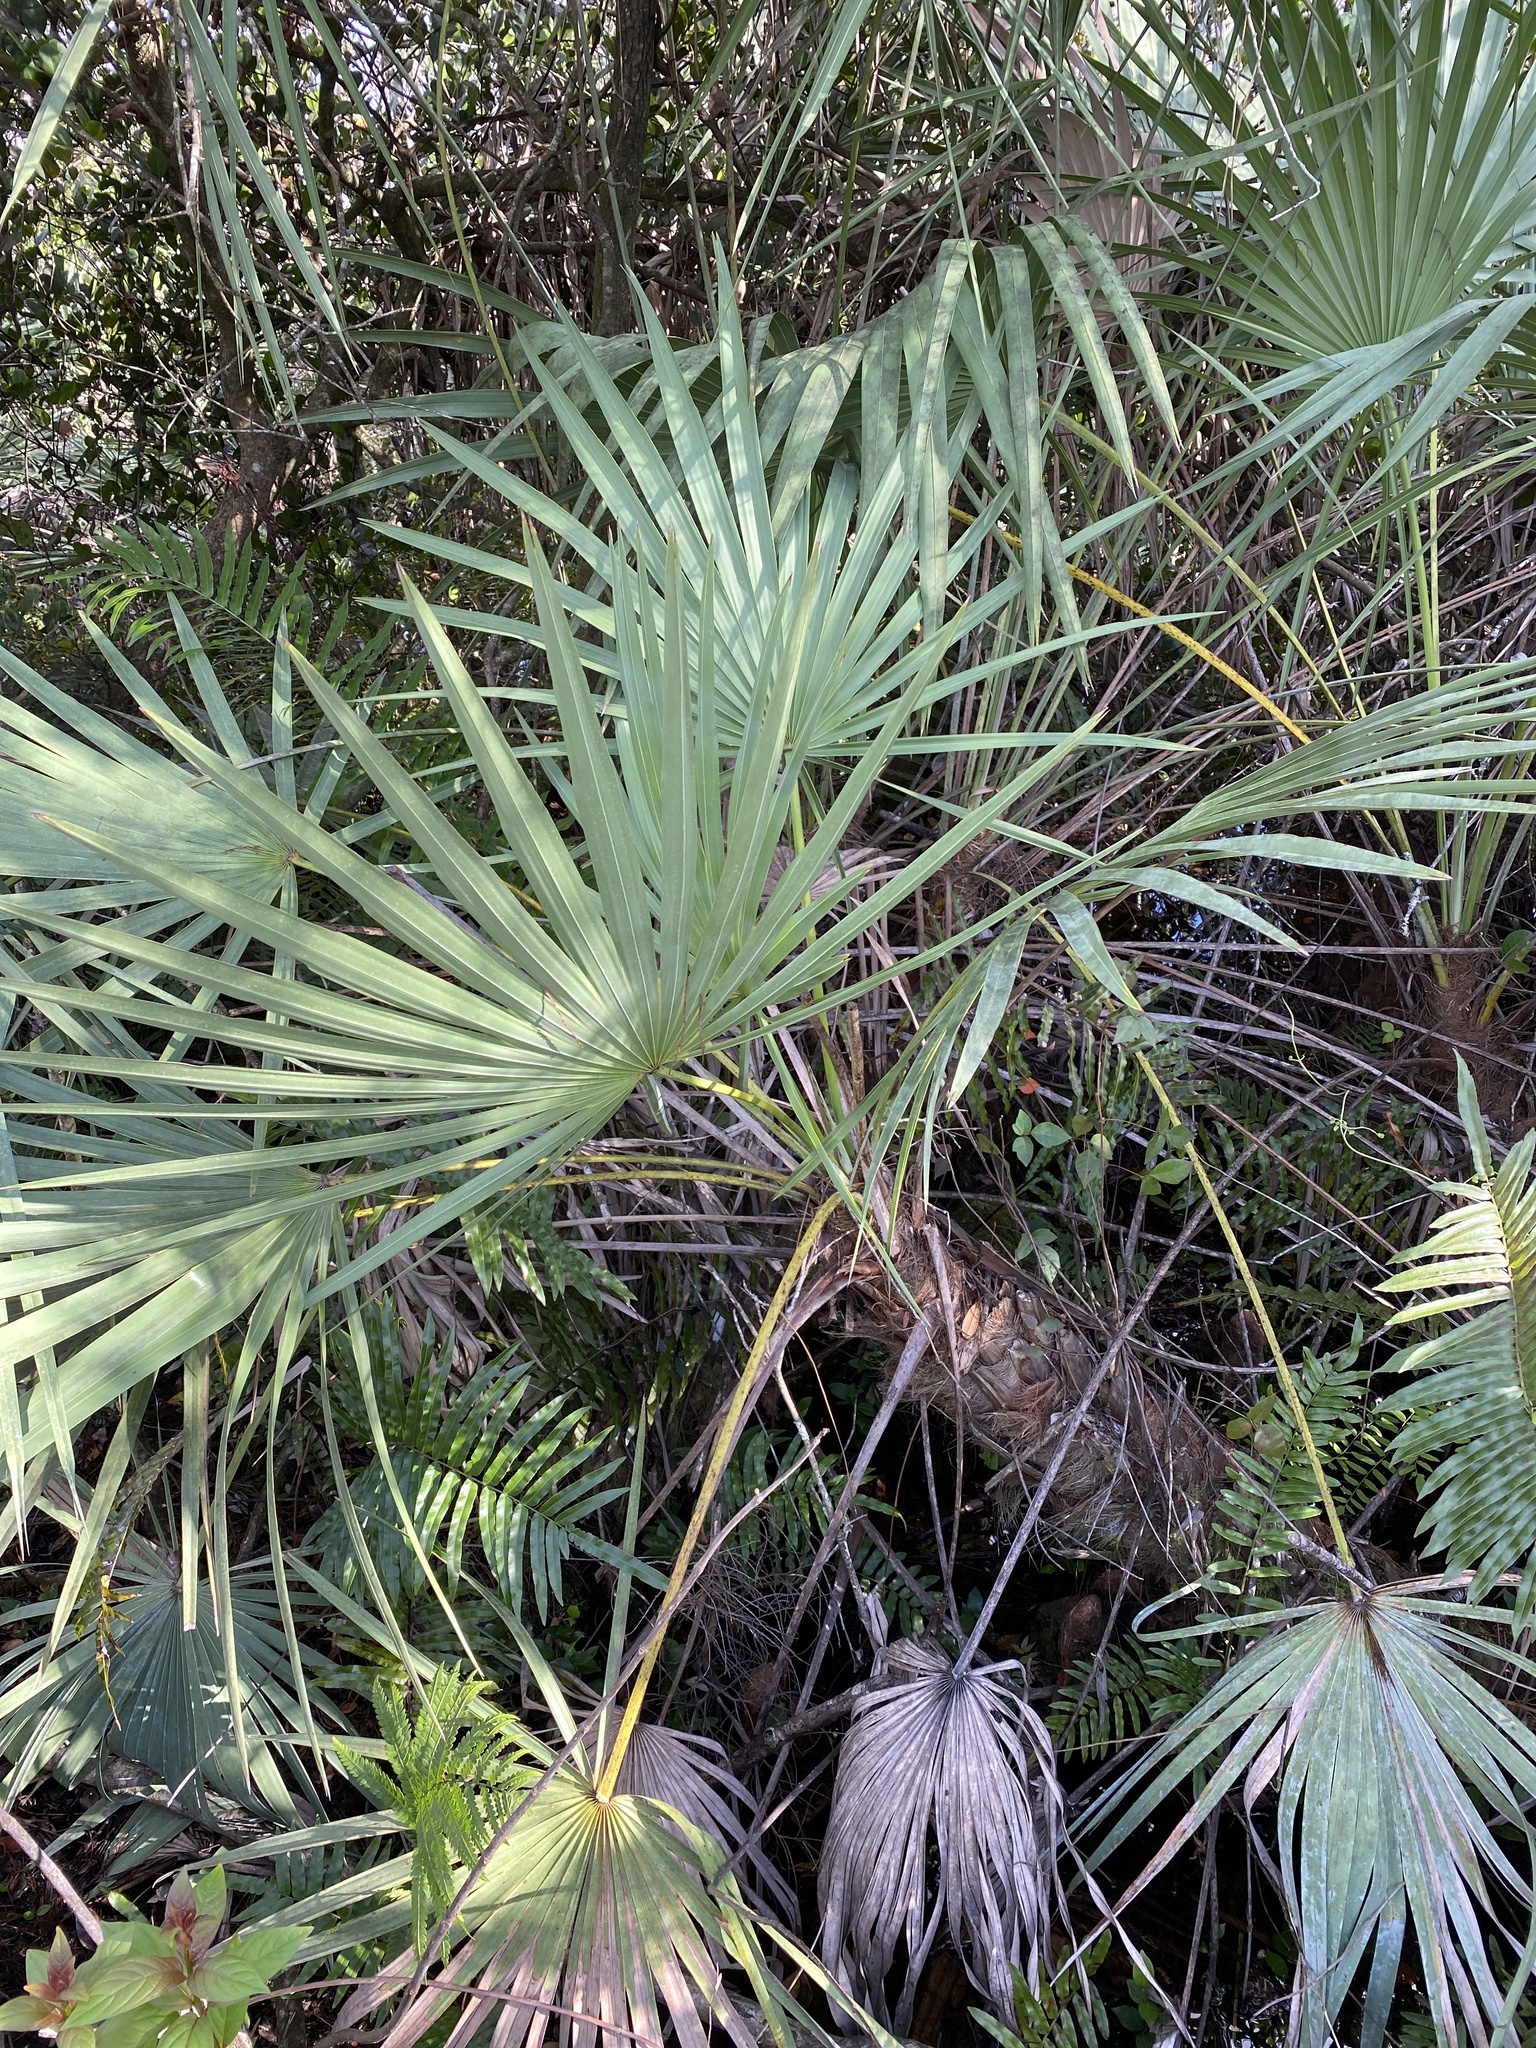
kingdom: Plantae
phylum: Tracheophyta
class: Liliopsida
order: Arecales
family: Arecaceae
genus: Serenoa
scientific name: Serenoa repens
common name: Saw-palmetto
